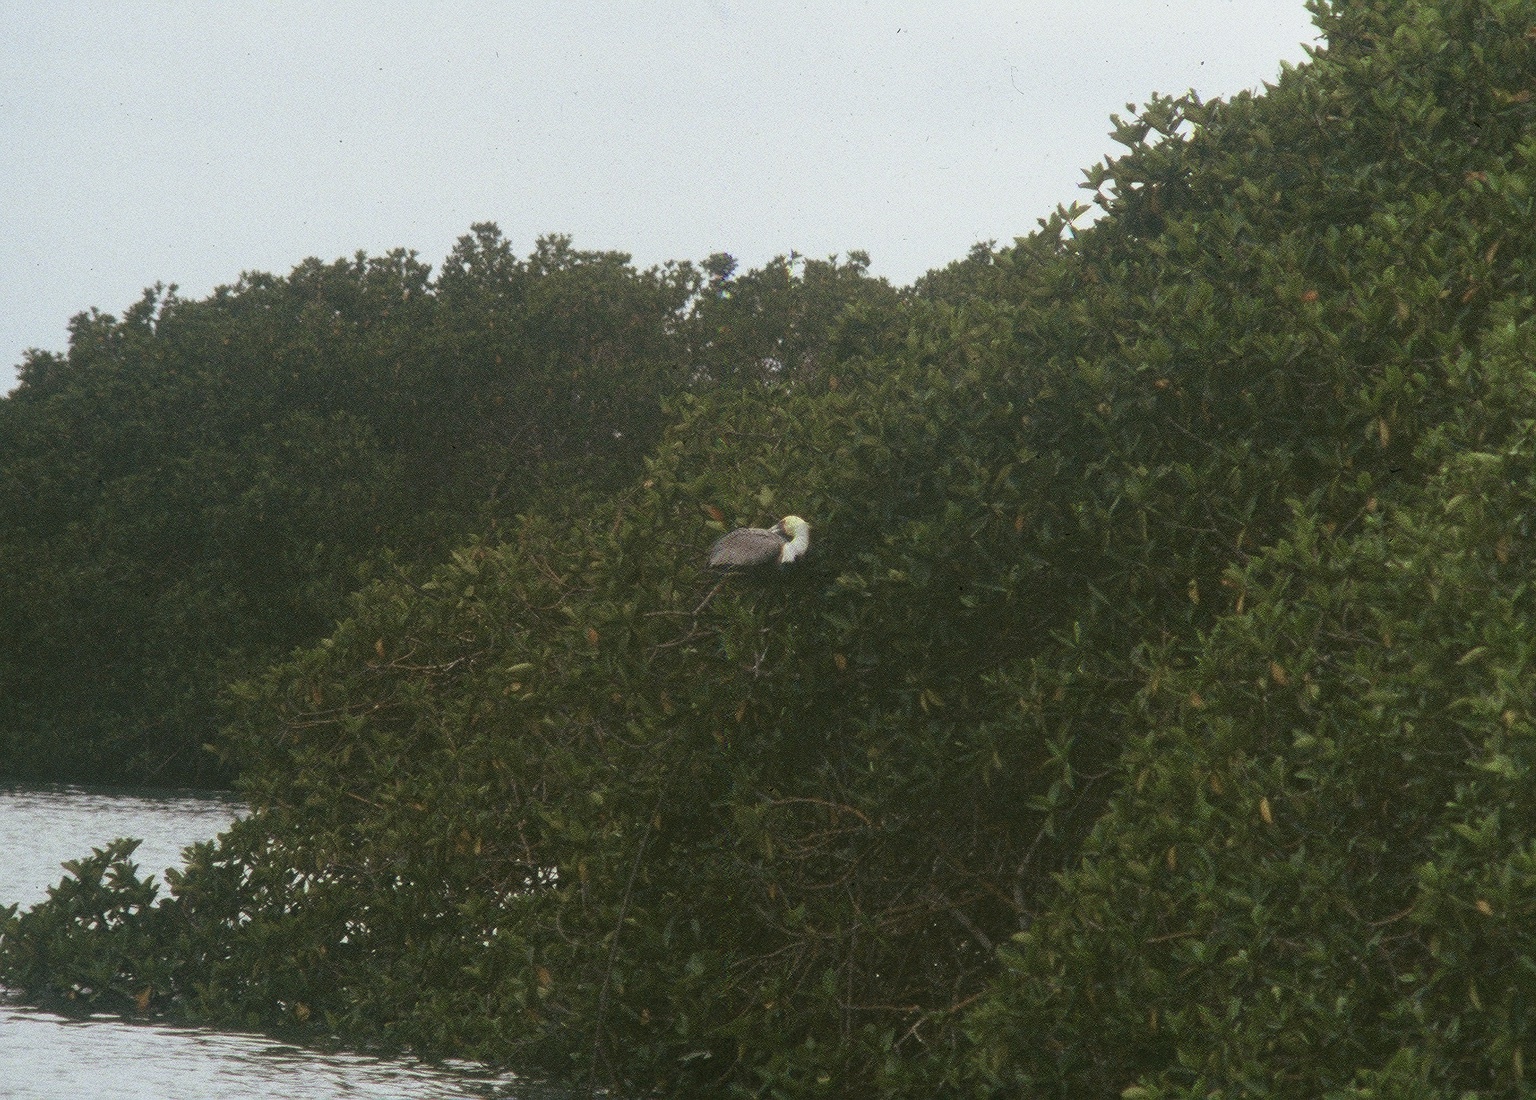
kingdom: Animalia
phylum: Chordata
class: Aves
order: Pelecaniformes
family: Pelecanidae
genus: Pelecanus
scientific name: Pelecanus occidentalis
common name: Brown pelican
